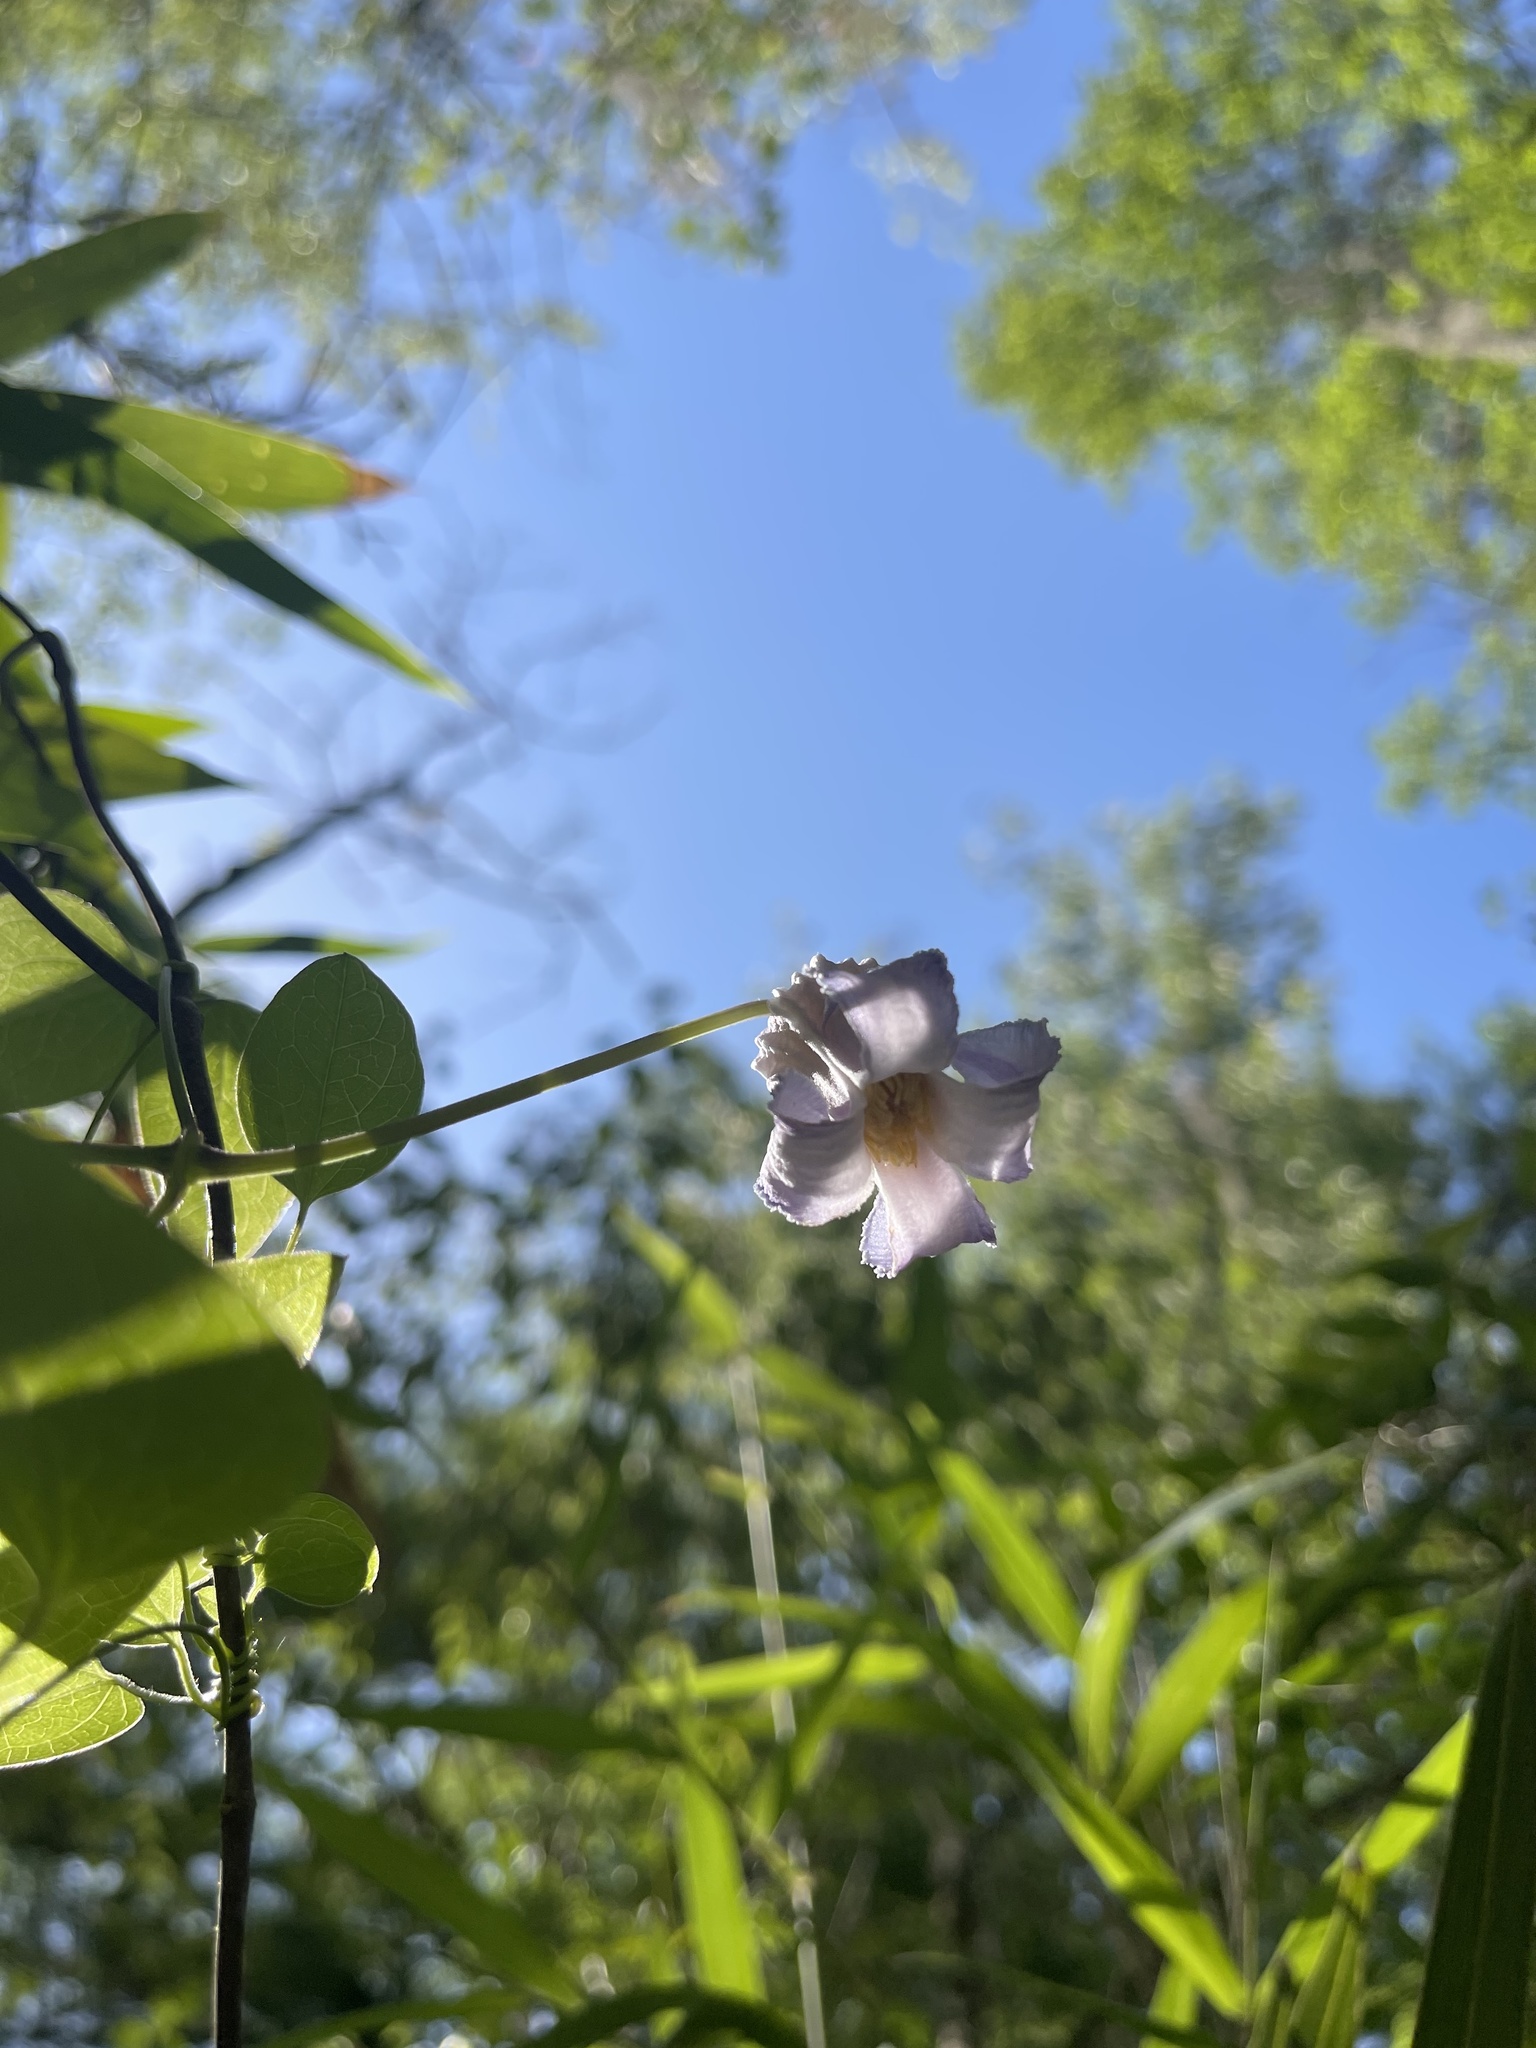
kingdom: Plantae
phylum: Tracheophyta
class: Magnoliopsida
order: Ranunculales
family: Ranunculaceae
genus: Clematis
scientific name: Clematis crispa
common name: Curly clematis
